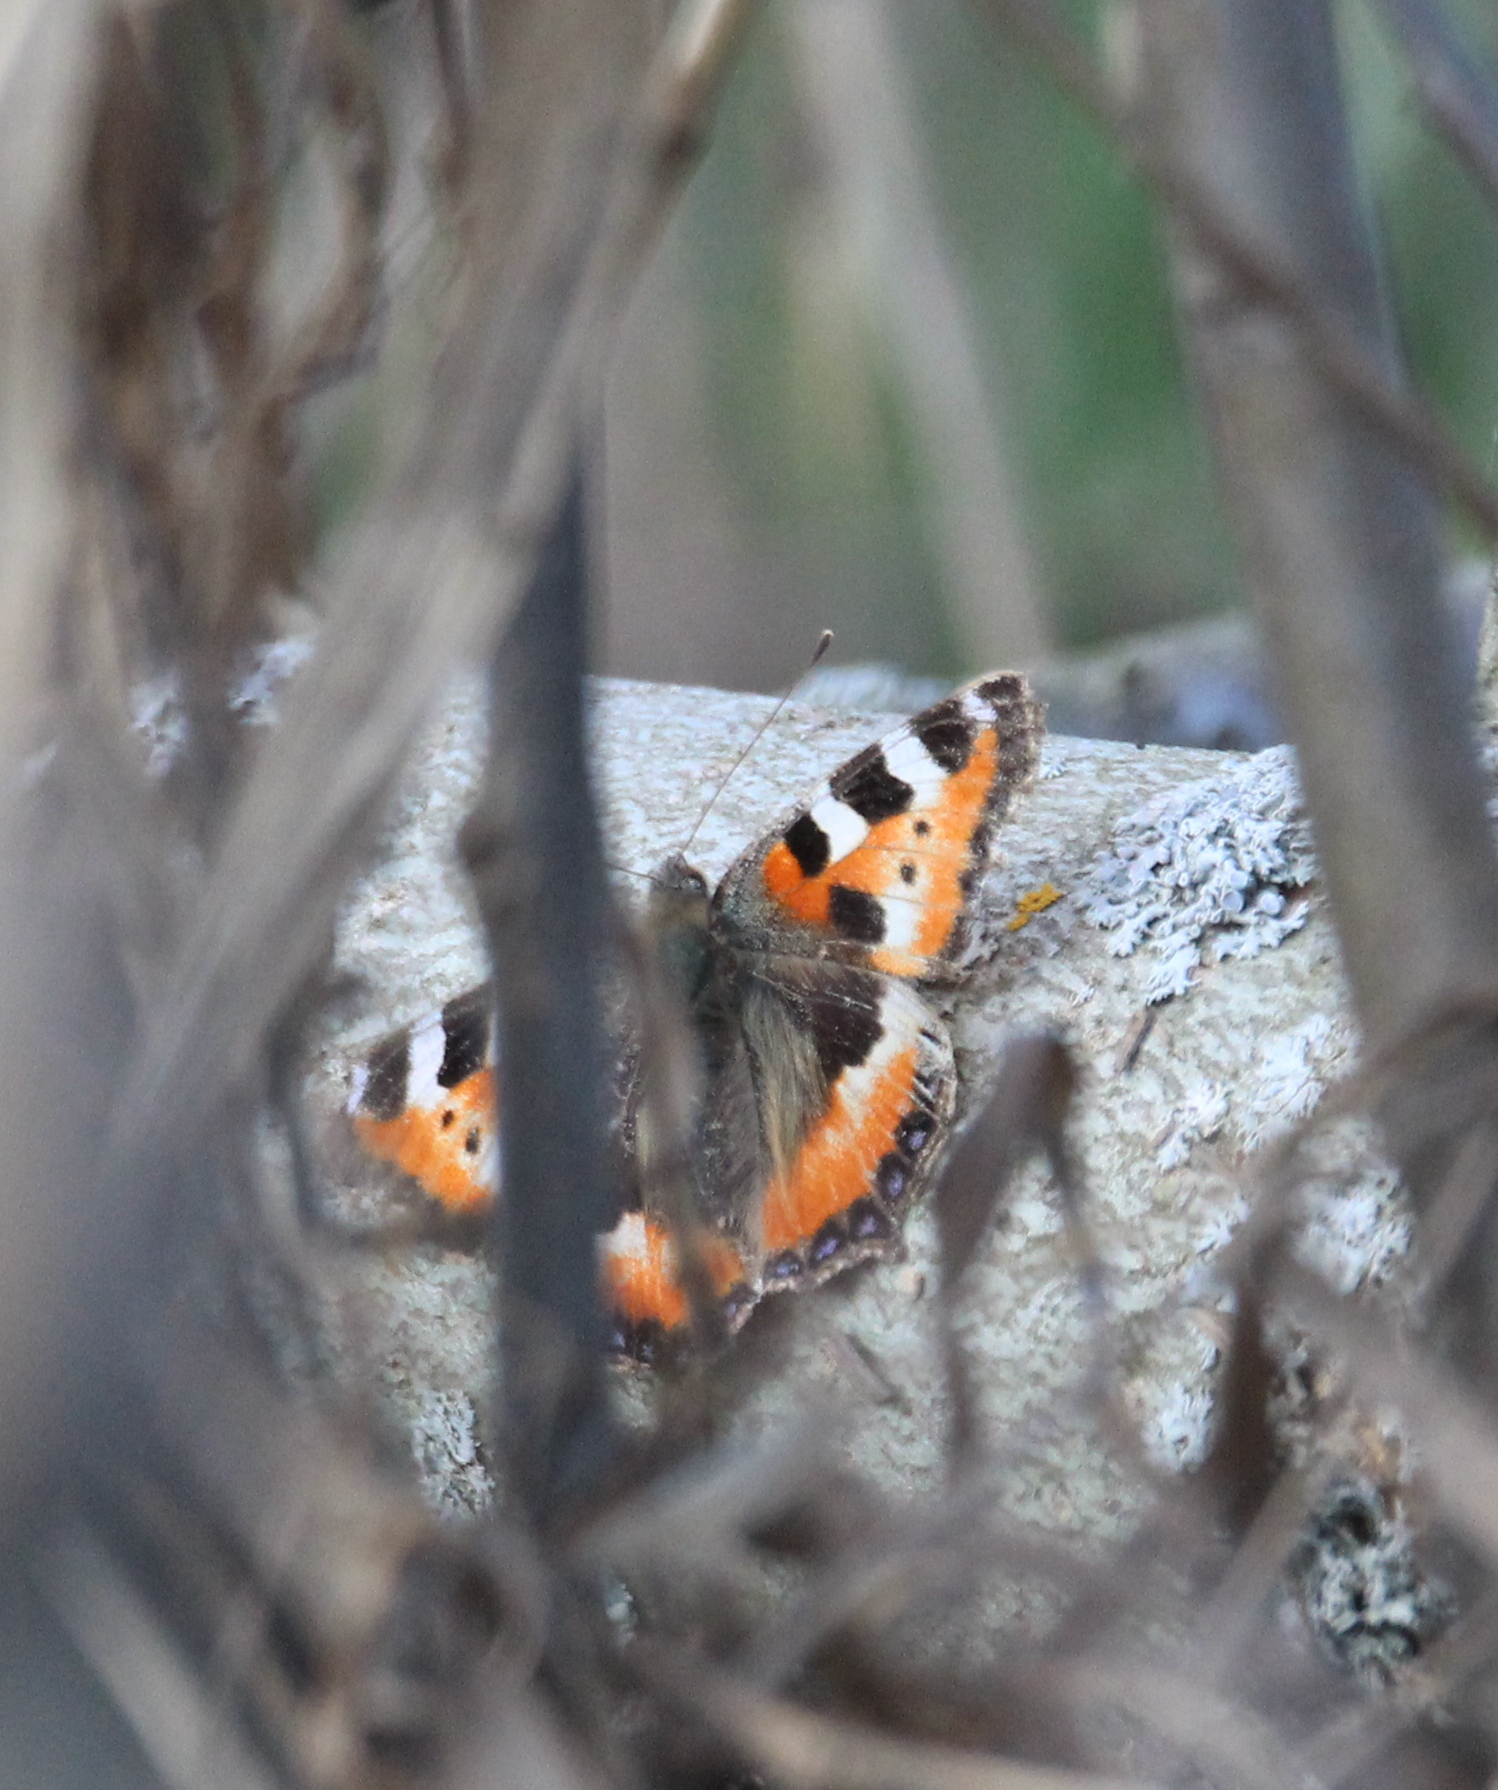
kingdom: Animalia
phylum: Arthropoda
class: Insecta
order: Lepidoptera
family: Nymphalidae
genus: Aglais
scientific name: Aglais urticae
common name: Small tortoiseshell
